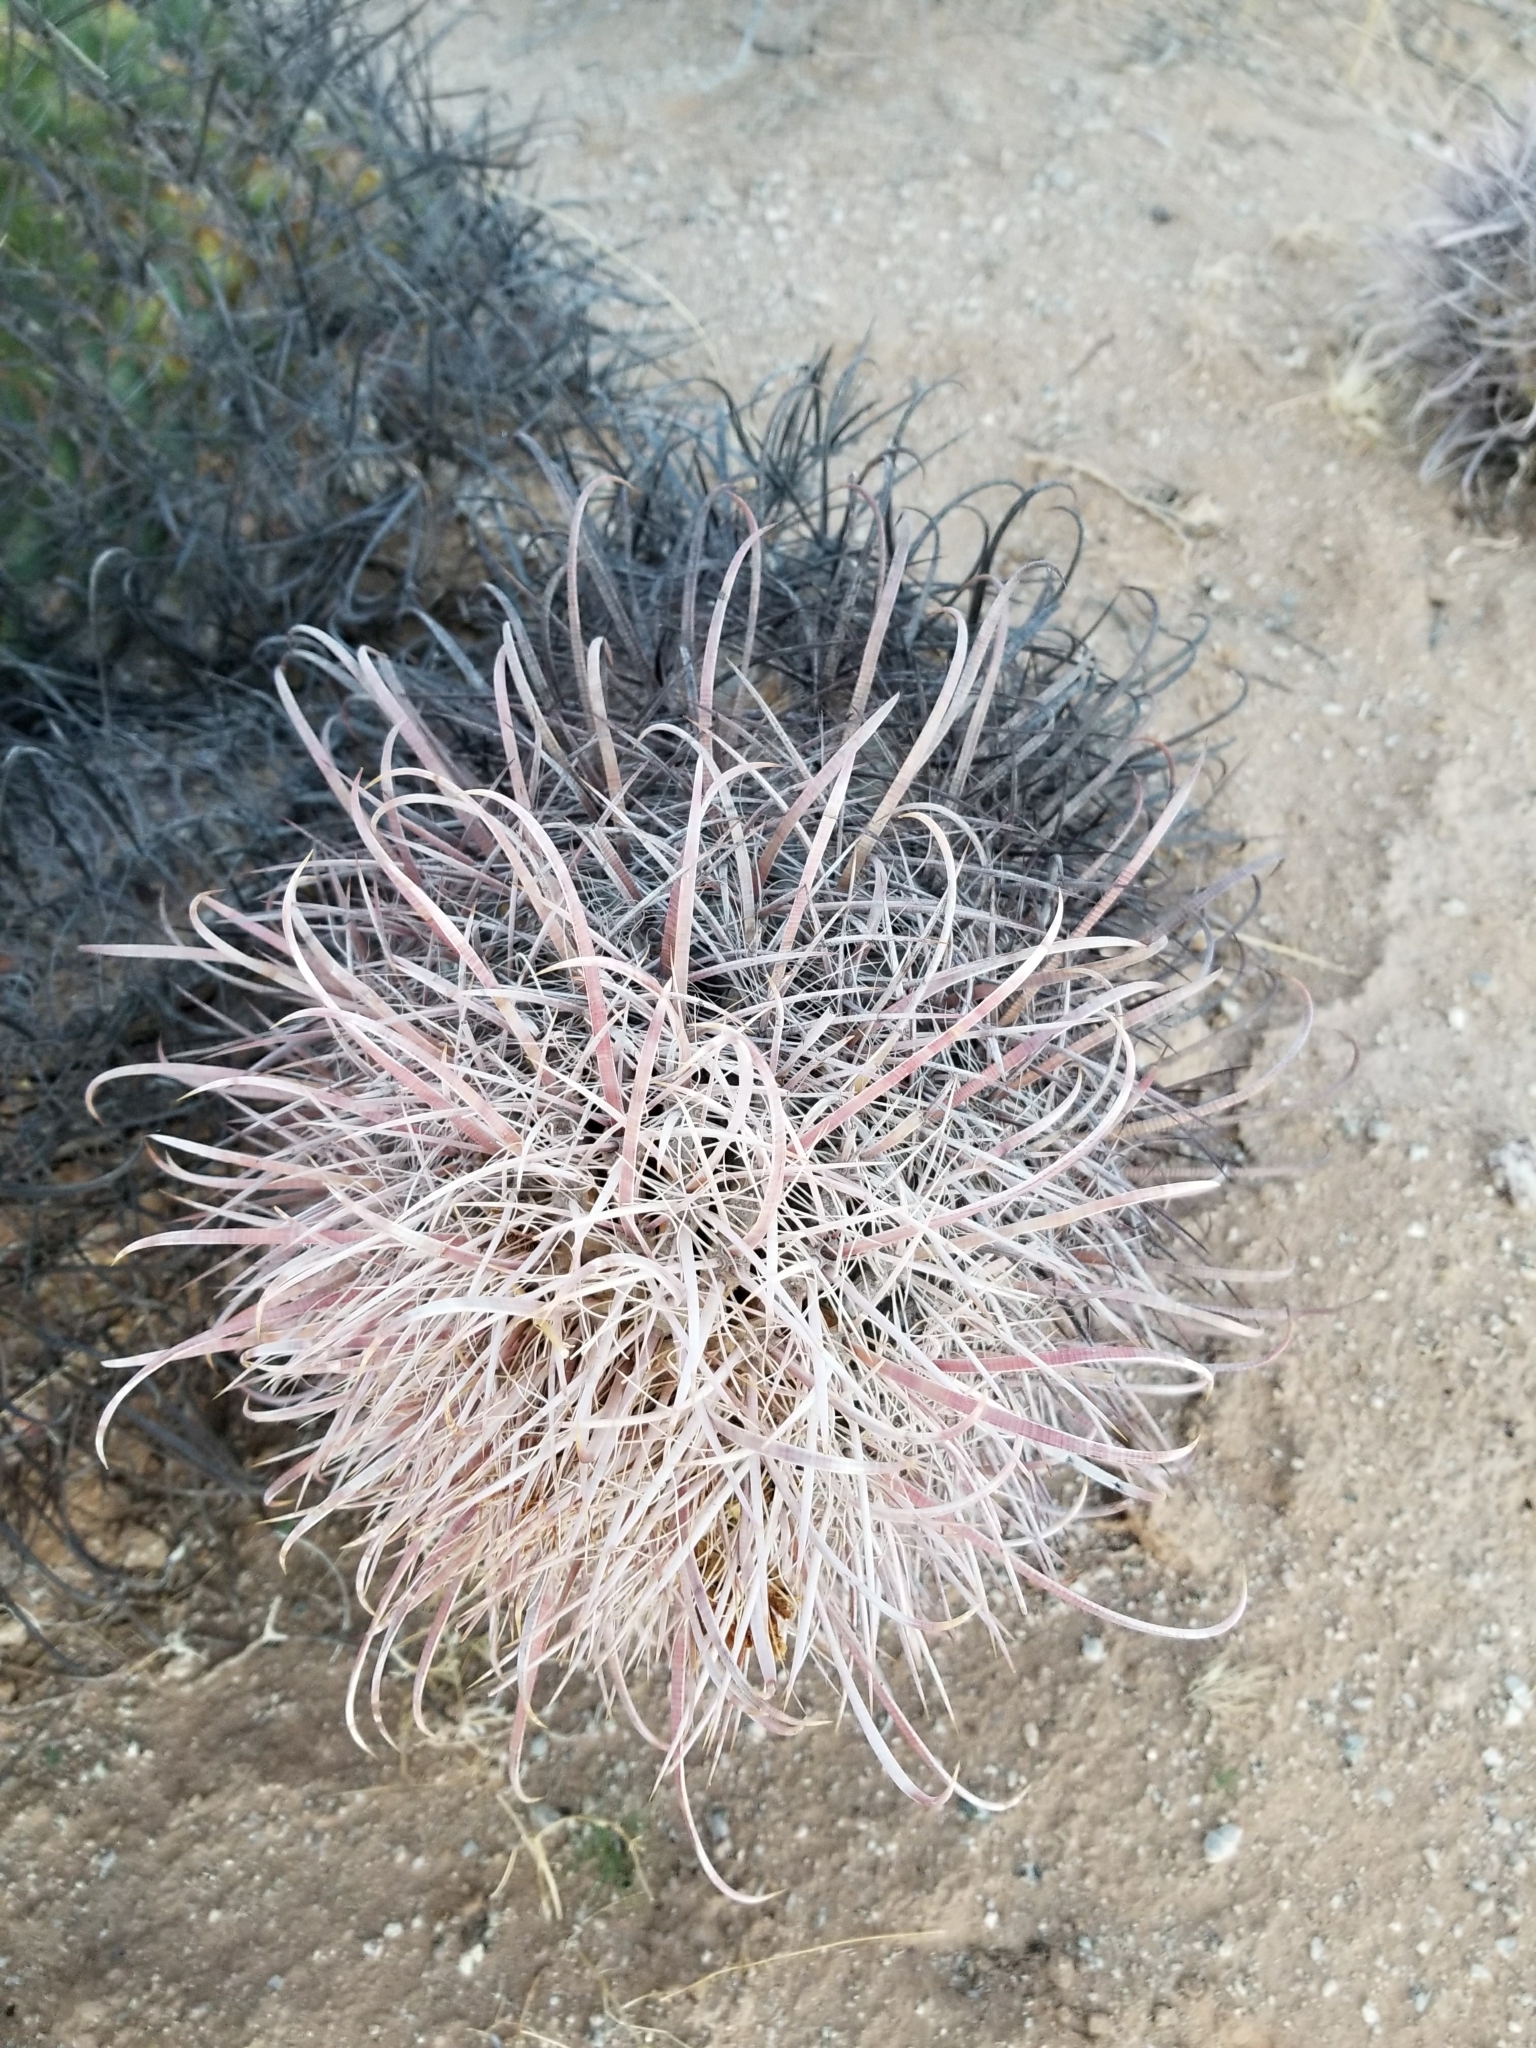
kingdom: Plantae
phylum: Tracheophyta
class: Magnoliopsida
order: Caryophyllales
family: Cactaceae
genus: Ferocactus
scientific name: Ferocactus cylindraceus
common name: California barrel cactus
